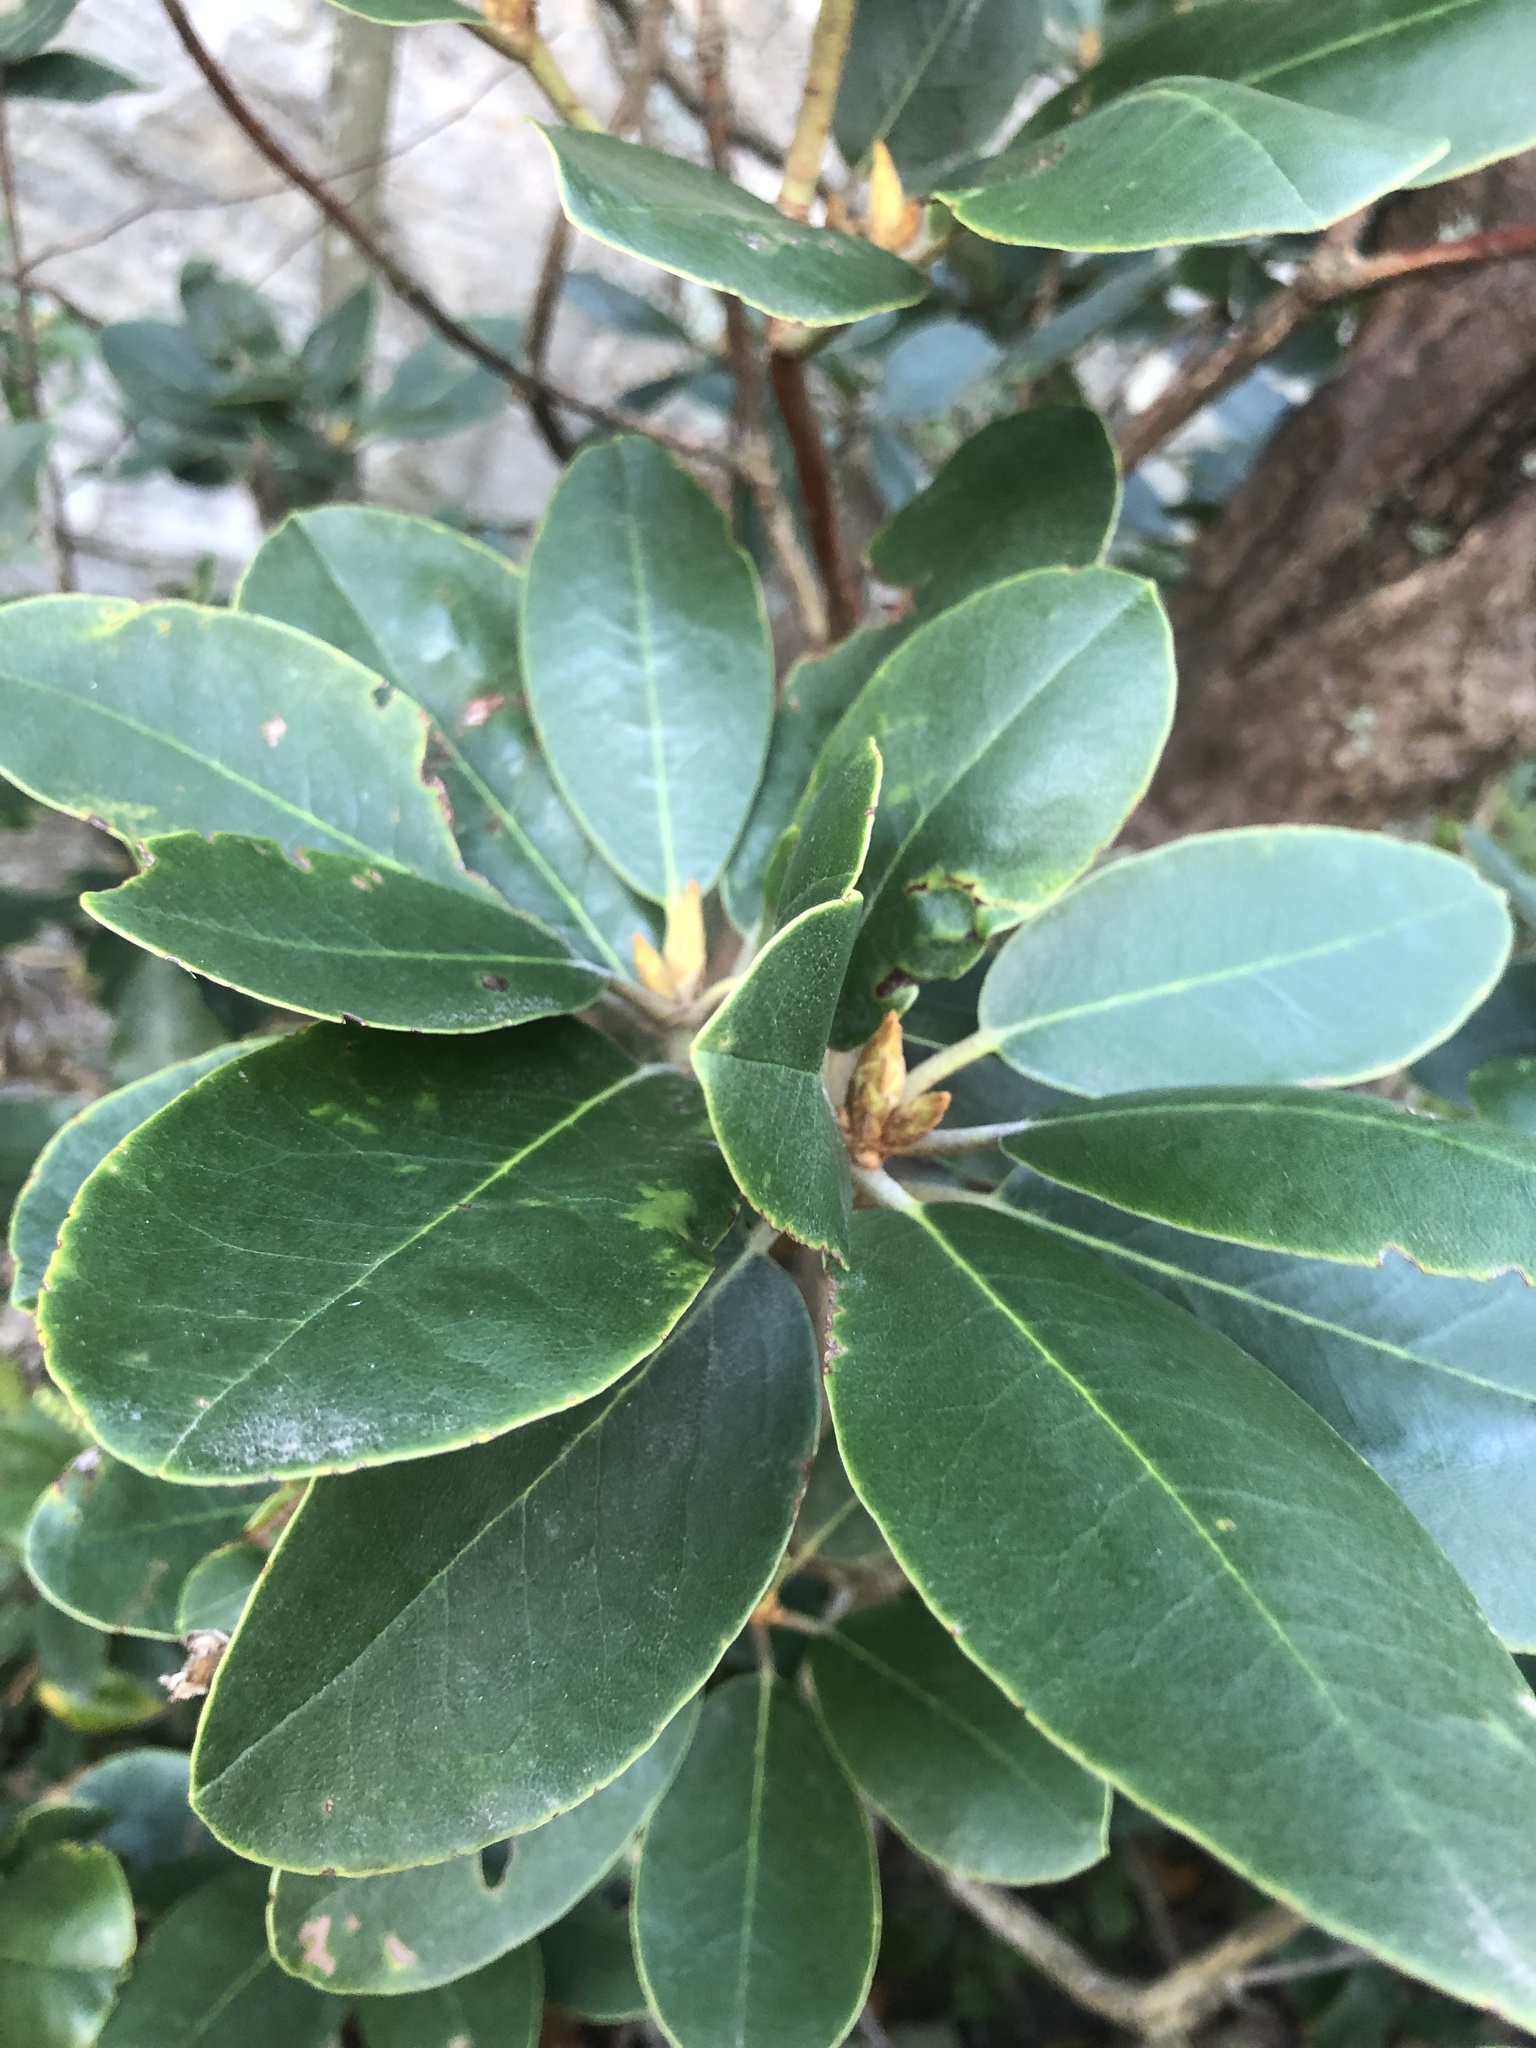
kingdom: Plantae
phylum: Tracheophyta
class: Magnoliopsida
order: Ericales
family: Ericaceae
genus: Rhododendron
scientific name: Rhododendron catawbiense
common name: Catawba rhododendron
